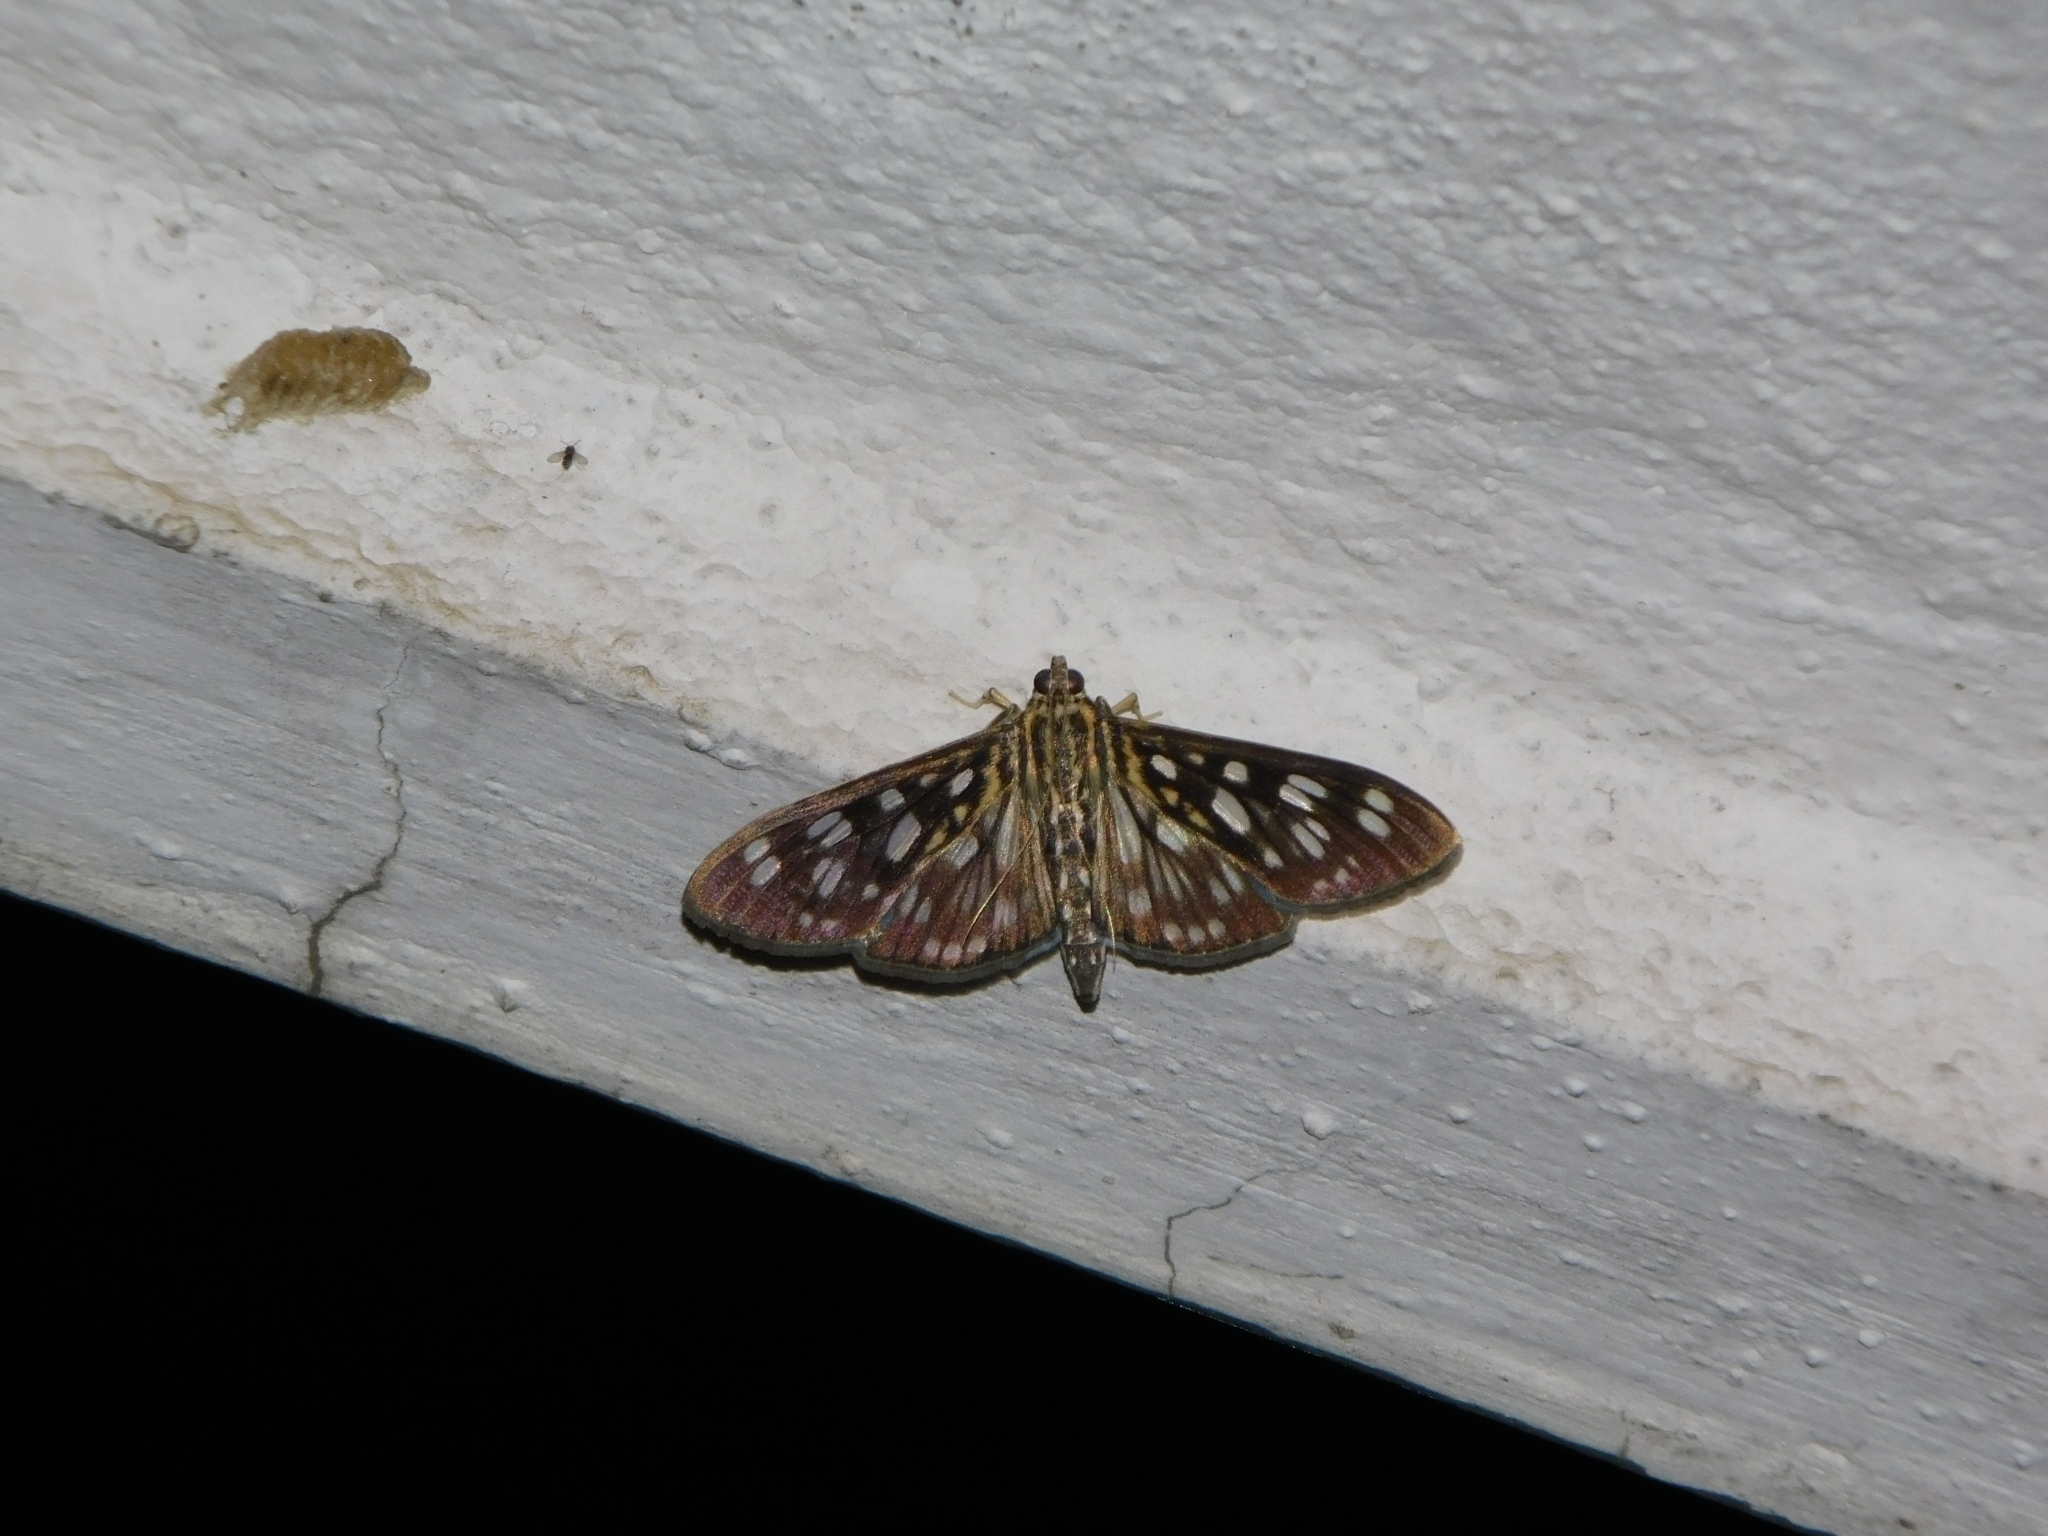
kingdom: Animalia
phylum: Arthropoda
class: Insecta
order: Lepidoptera
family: Crambidae
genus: Pygospila
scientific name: Pygospila tyres
